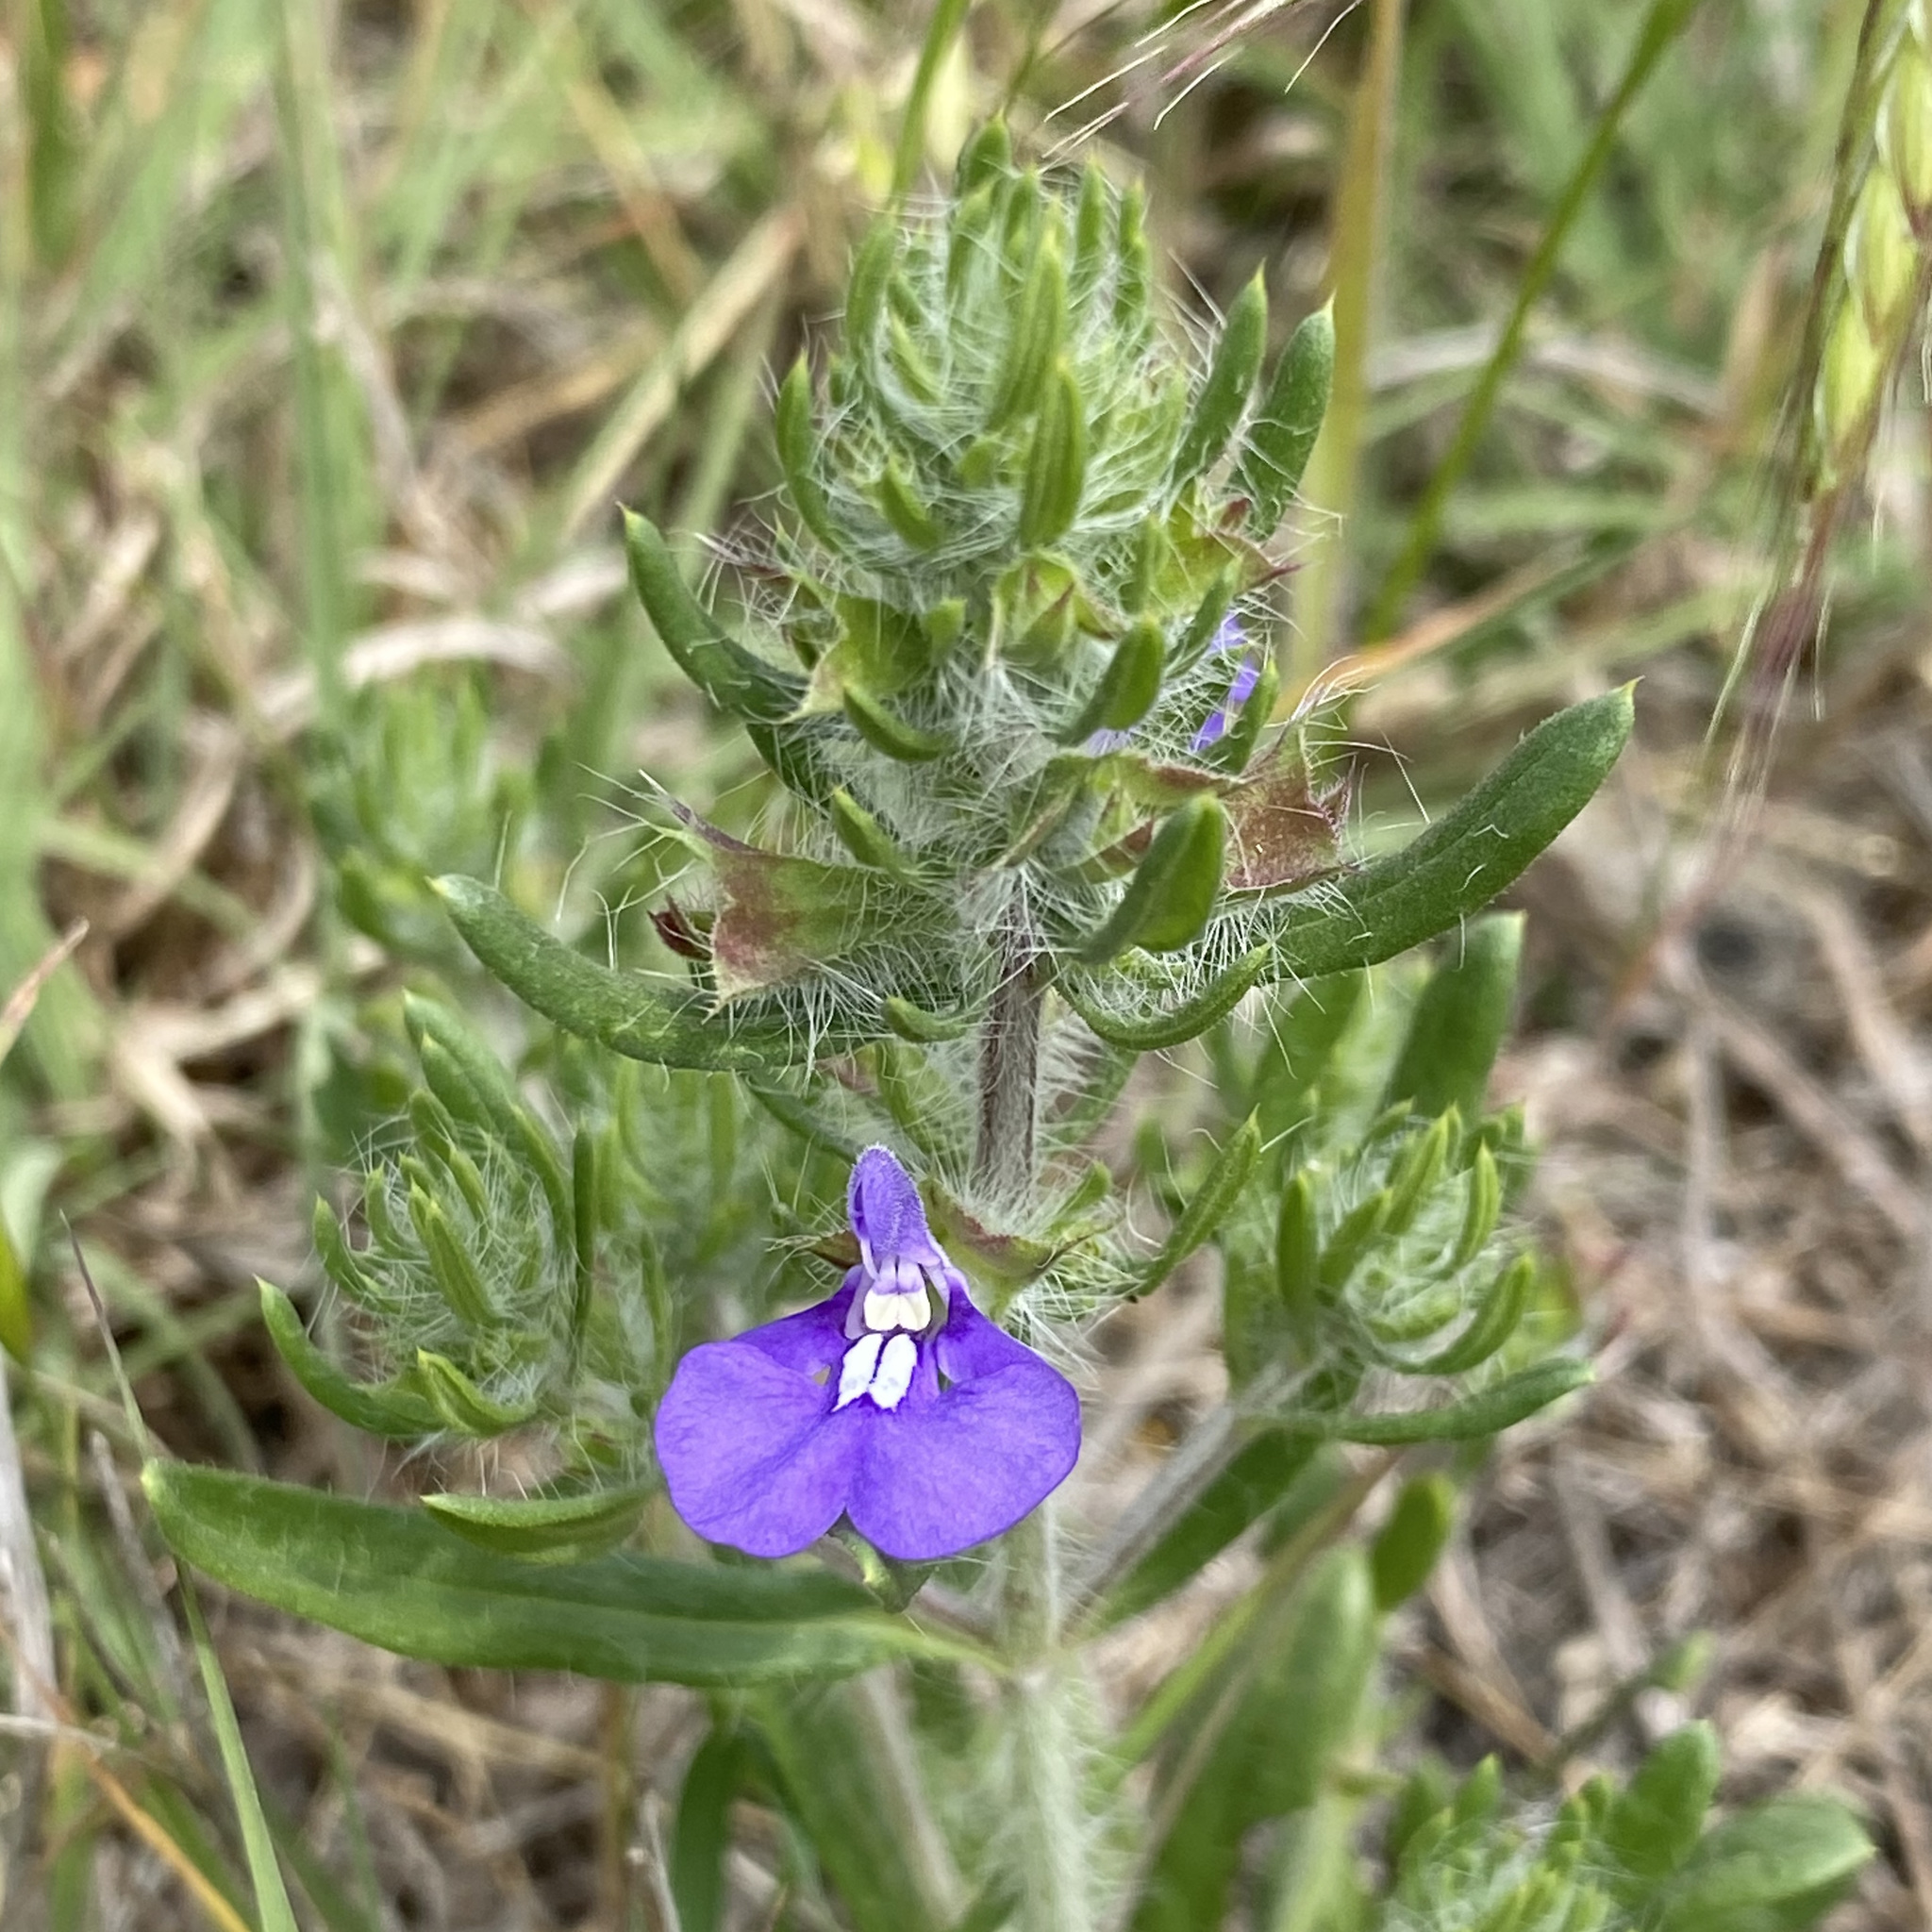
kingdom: Plantae
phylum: Tracheophyta
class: Magnoliopsida
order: Lamiales
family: Lamiaceae
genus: Salvia
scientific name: Salvia texana
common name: Texas sage
